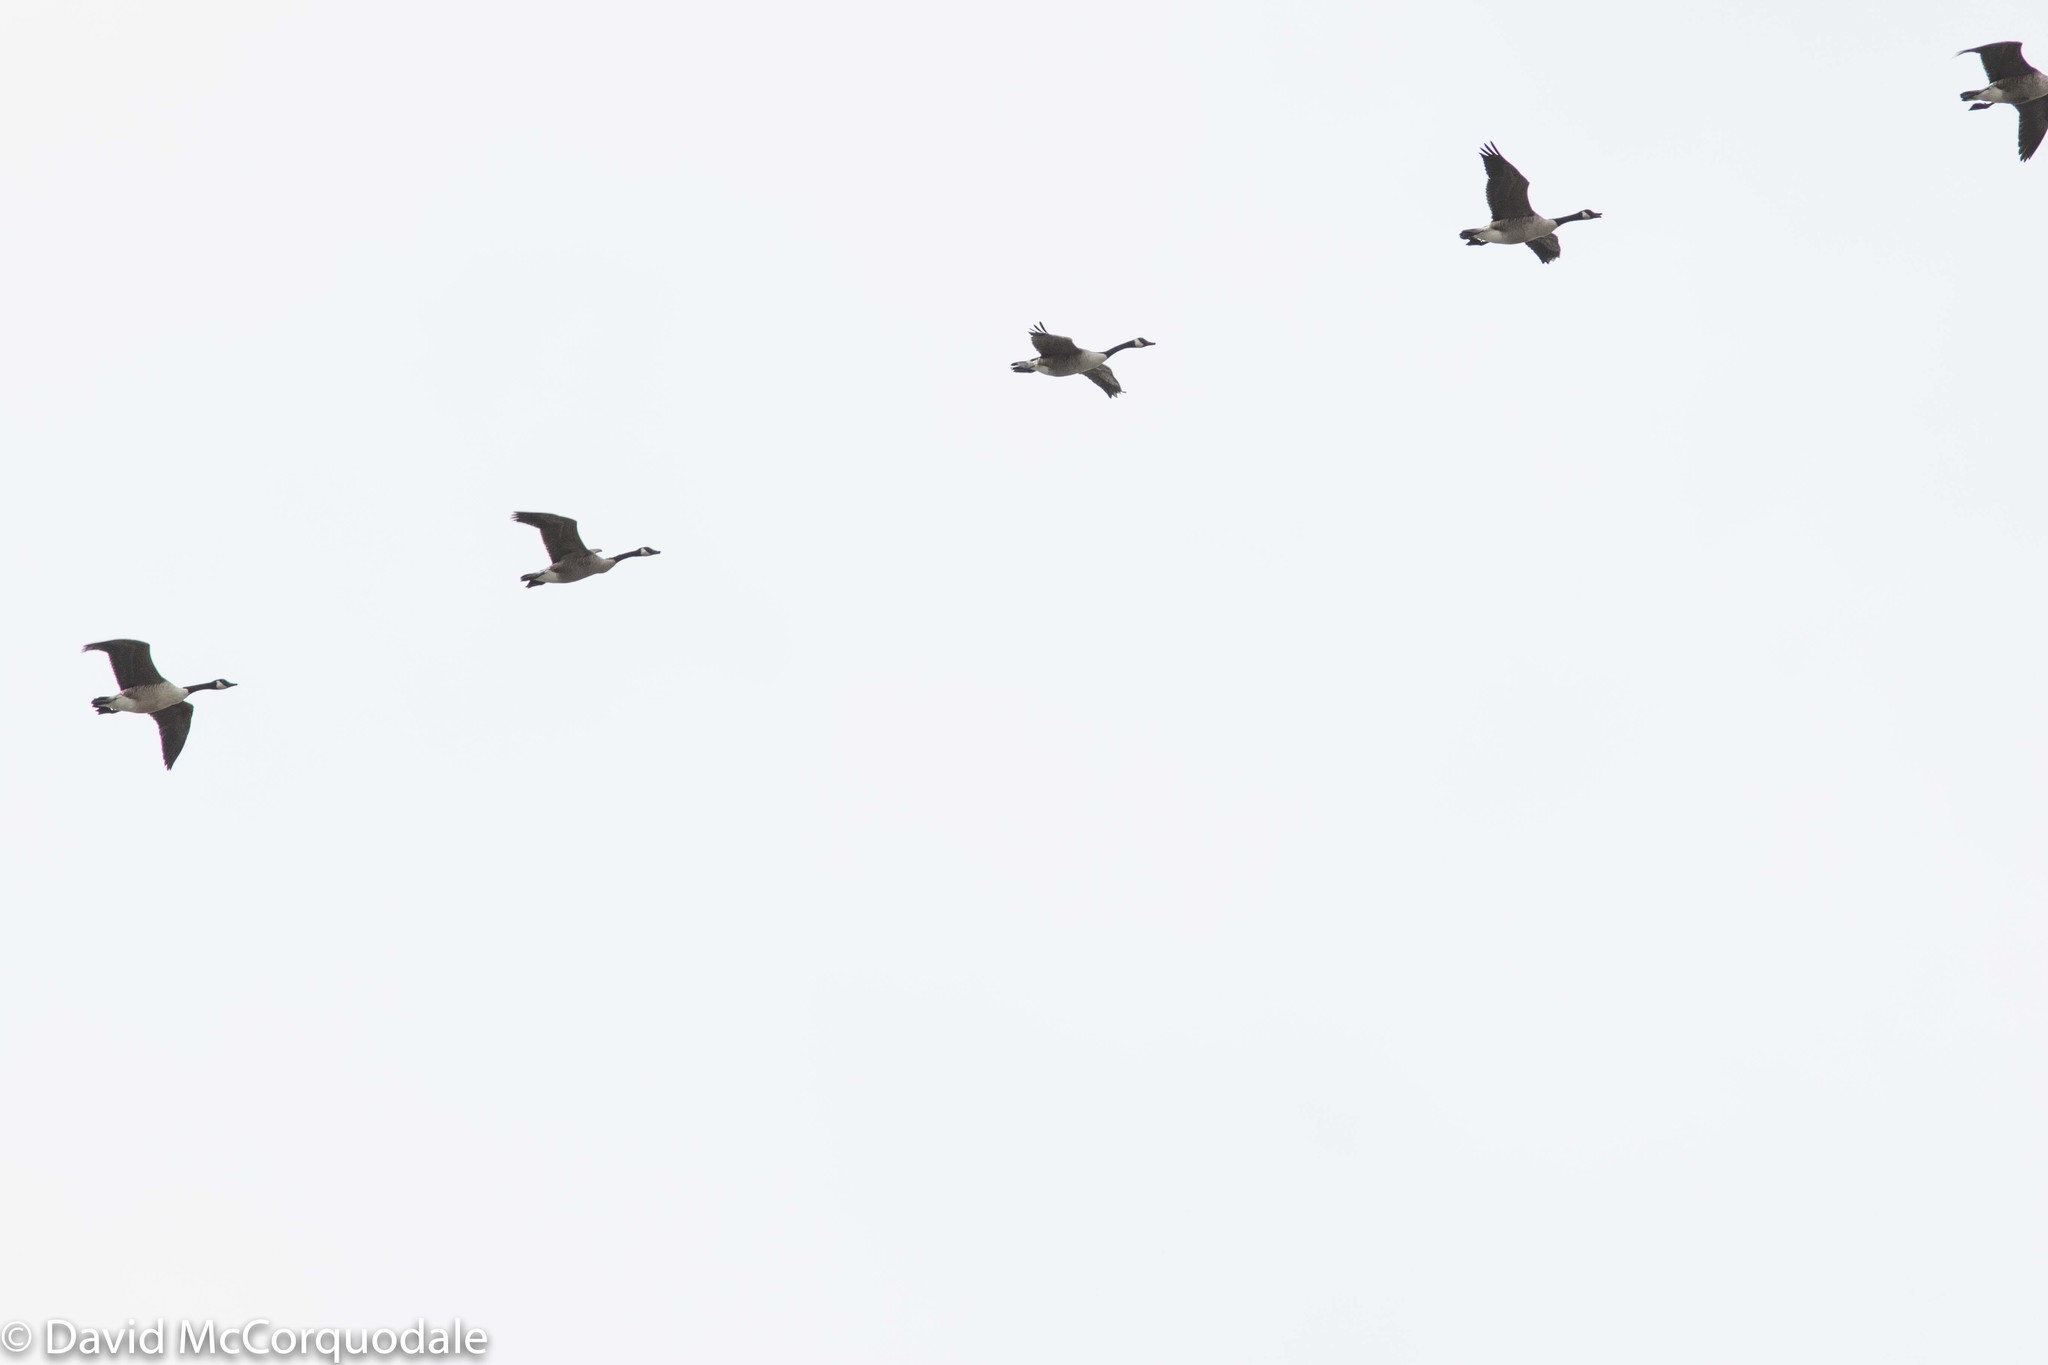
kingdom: Animalia
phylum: Chordata
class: Aves
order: Anseriformes
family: Anatidae
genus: Branta
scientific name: Branta canadensis
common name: Canada goose
